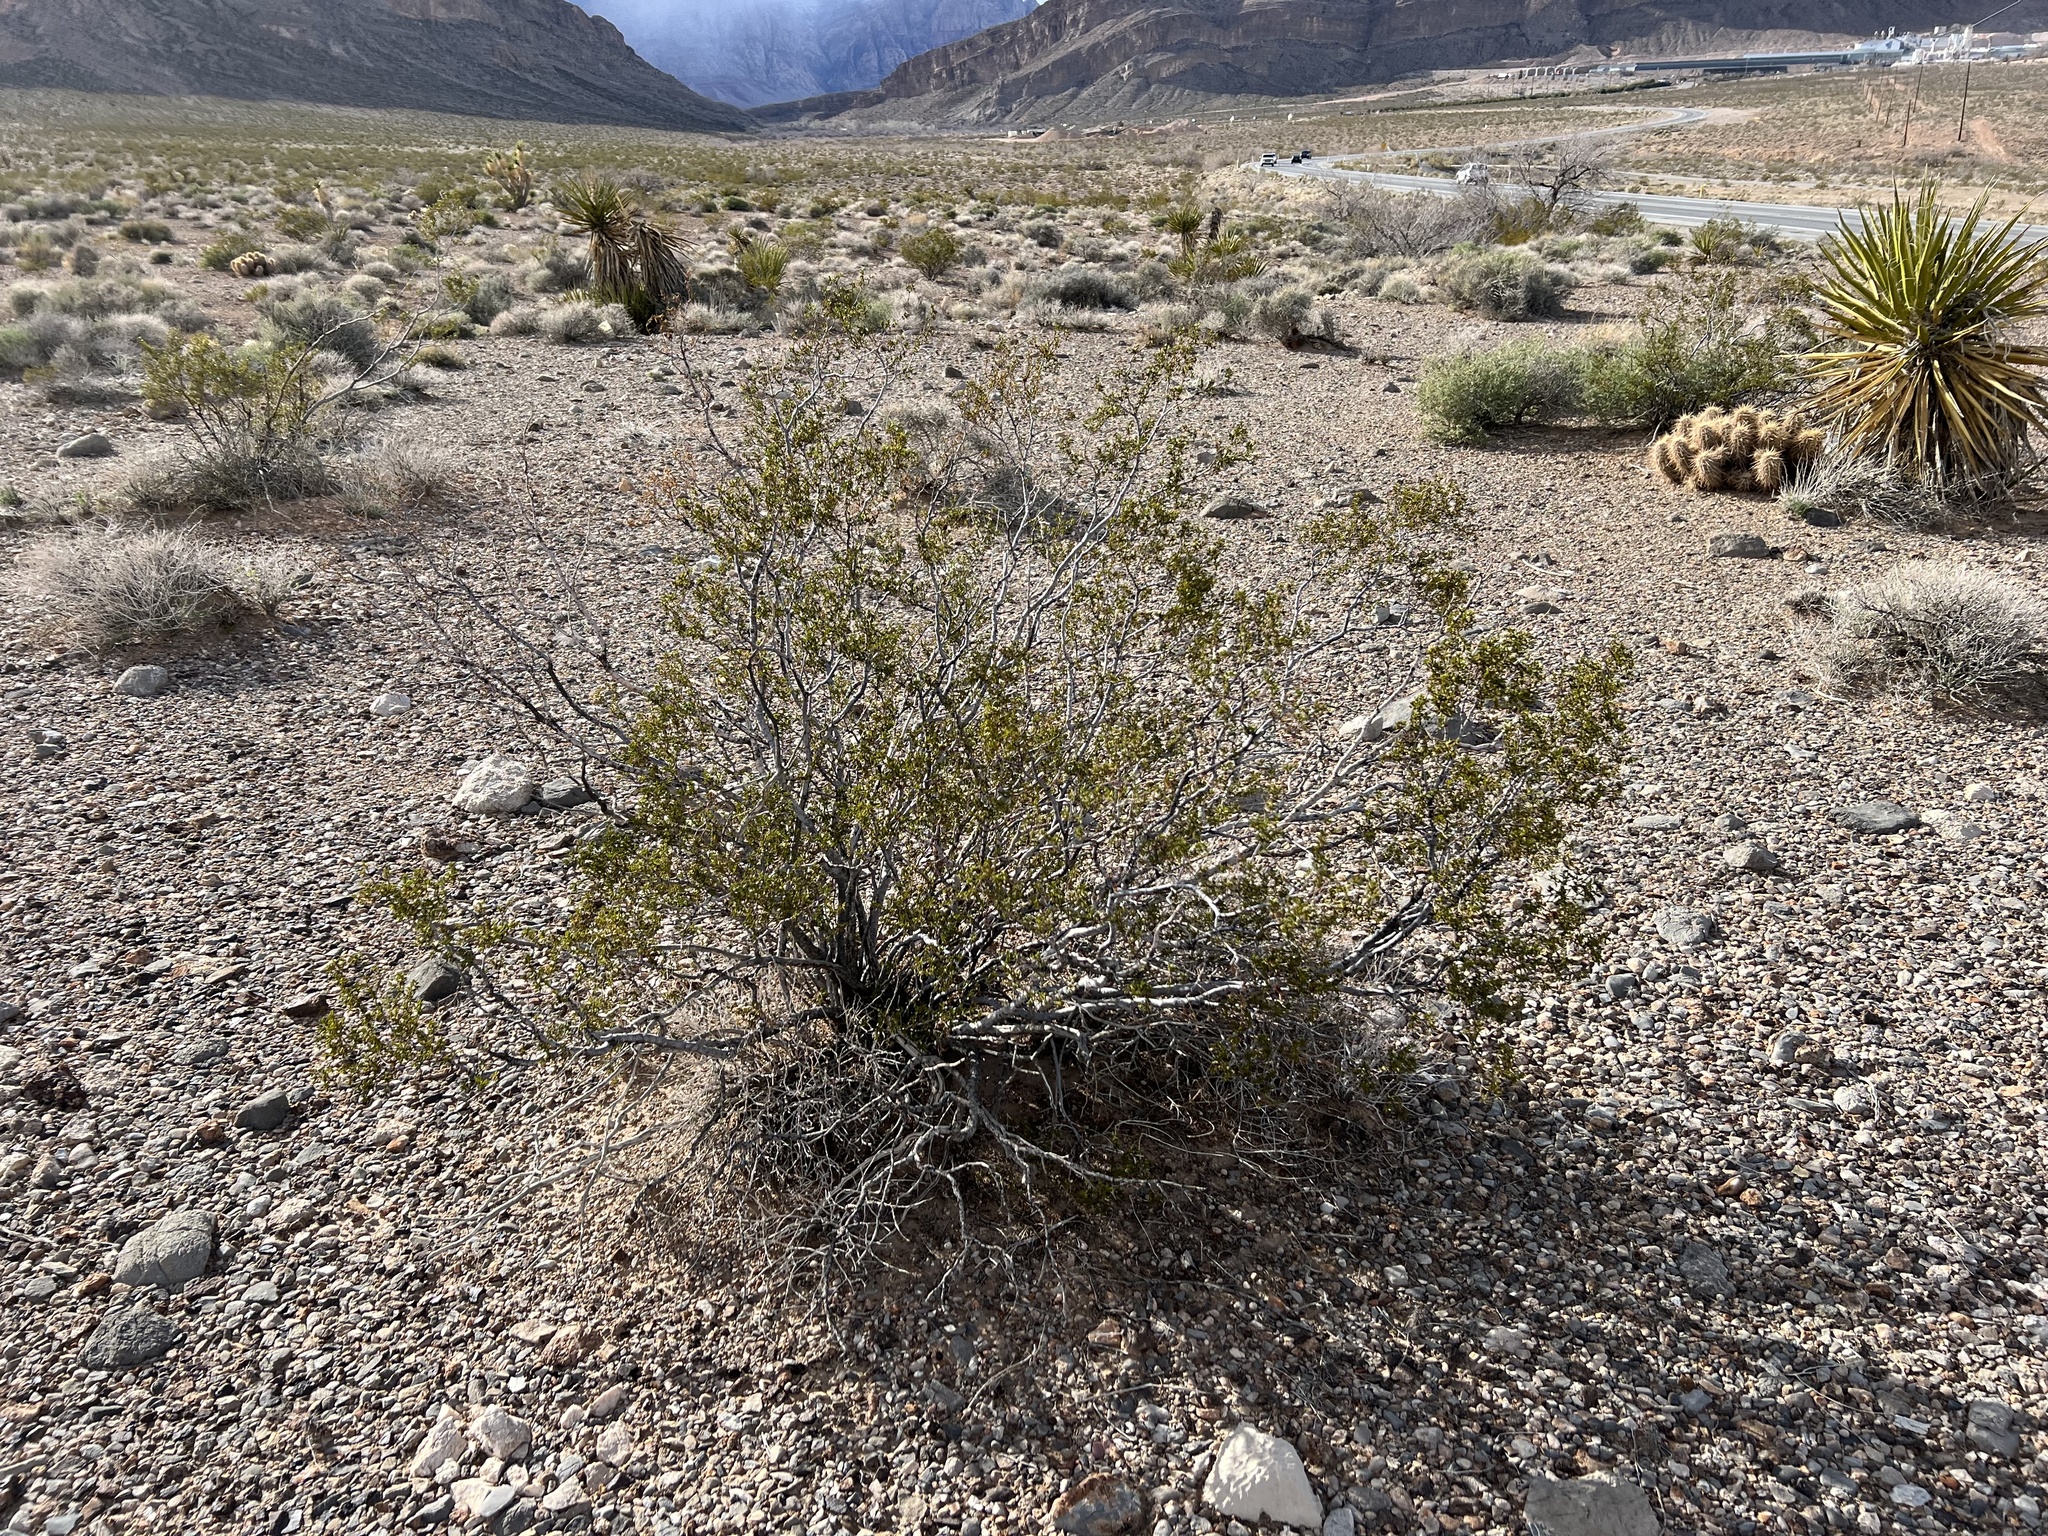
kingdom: Plantae
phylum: Tracheophyta
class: Magnoliopsida
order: Zygophyllales
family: Zygophyllaceae
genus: Larrea
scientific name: Larrea tridentata
